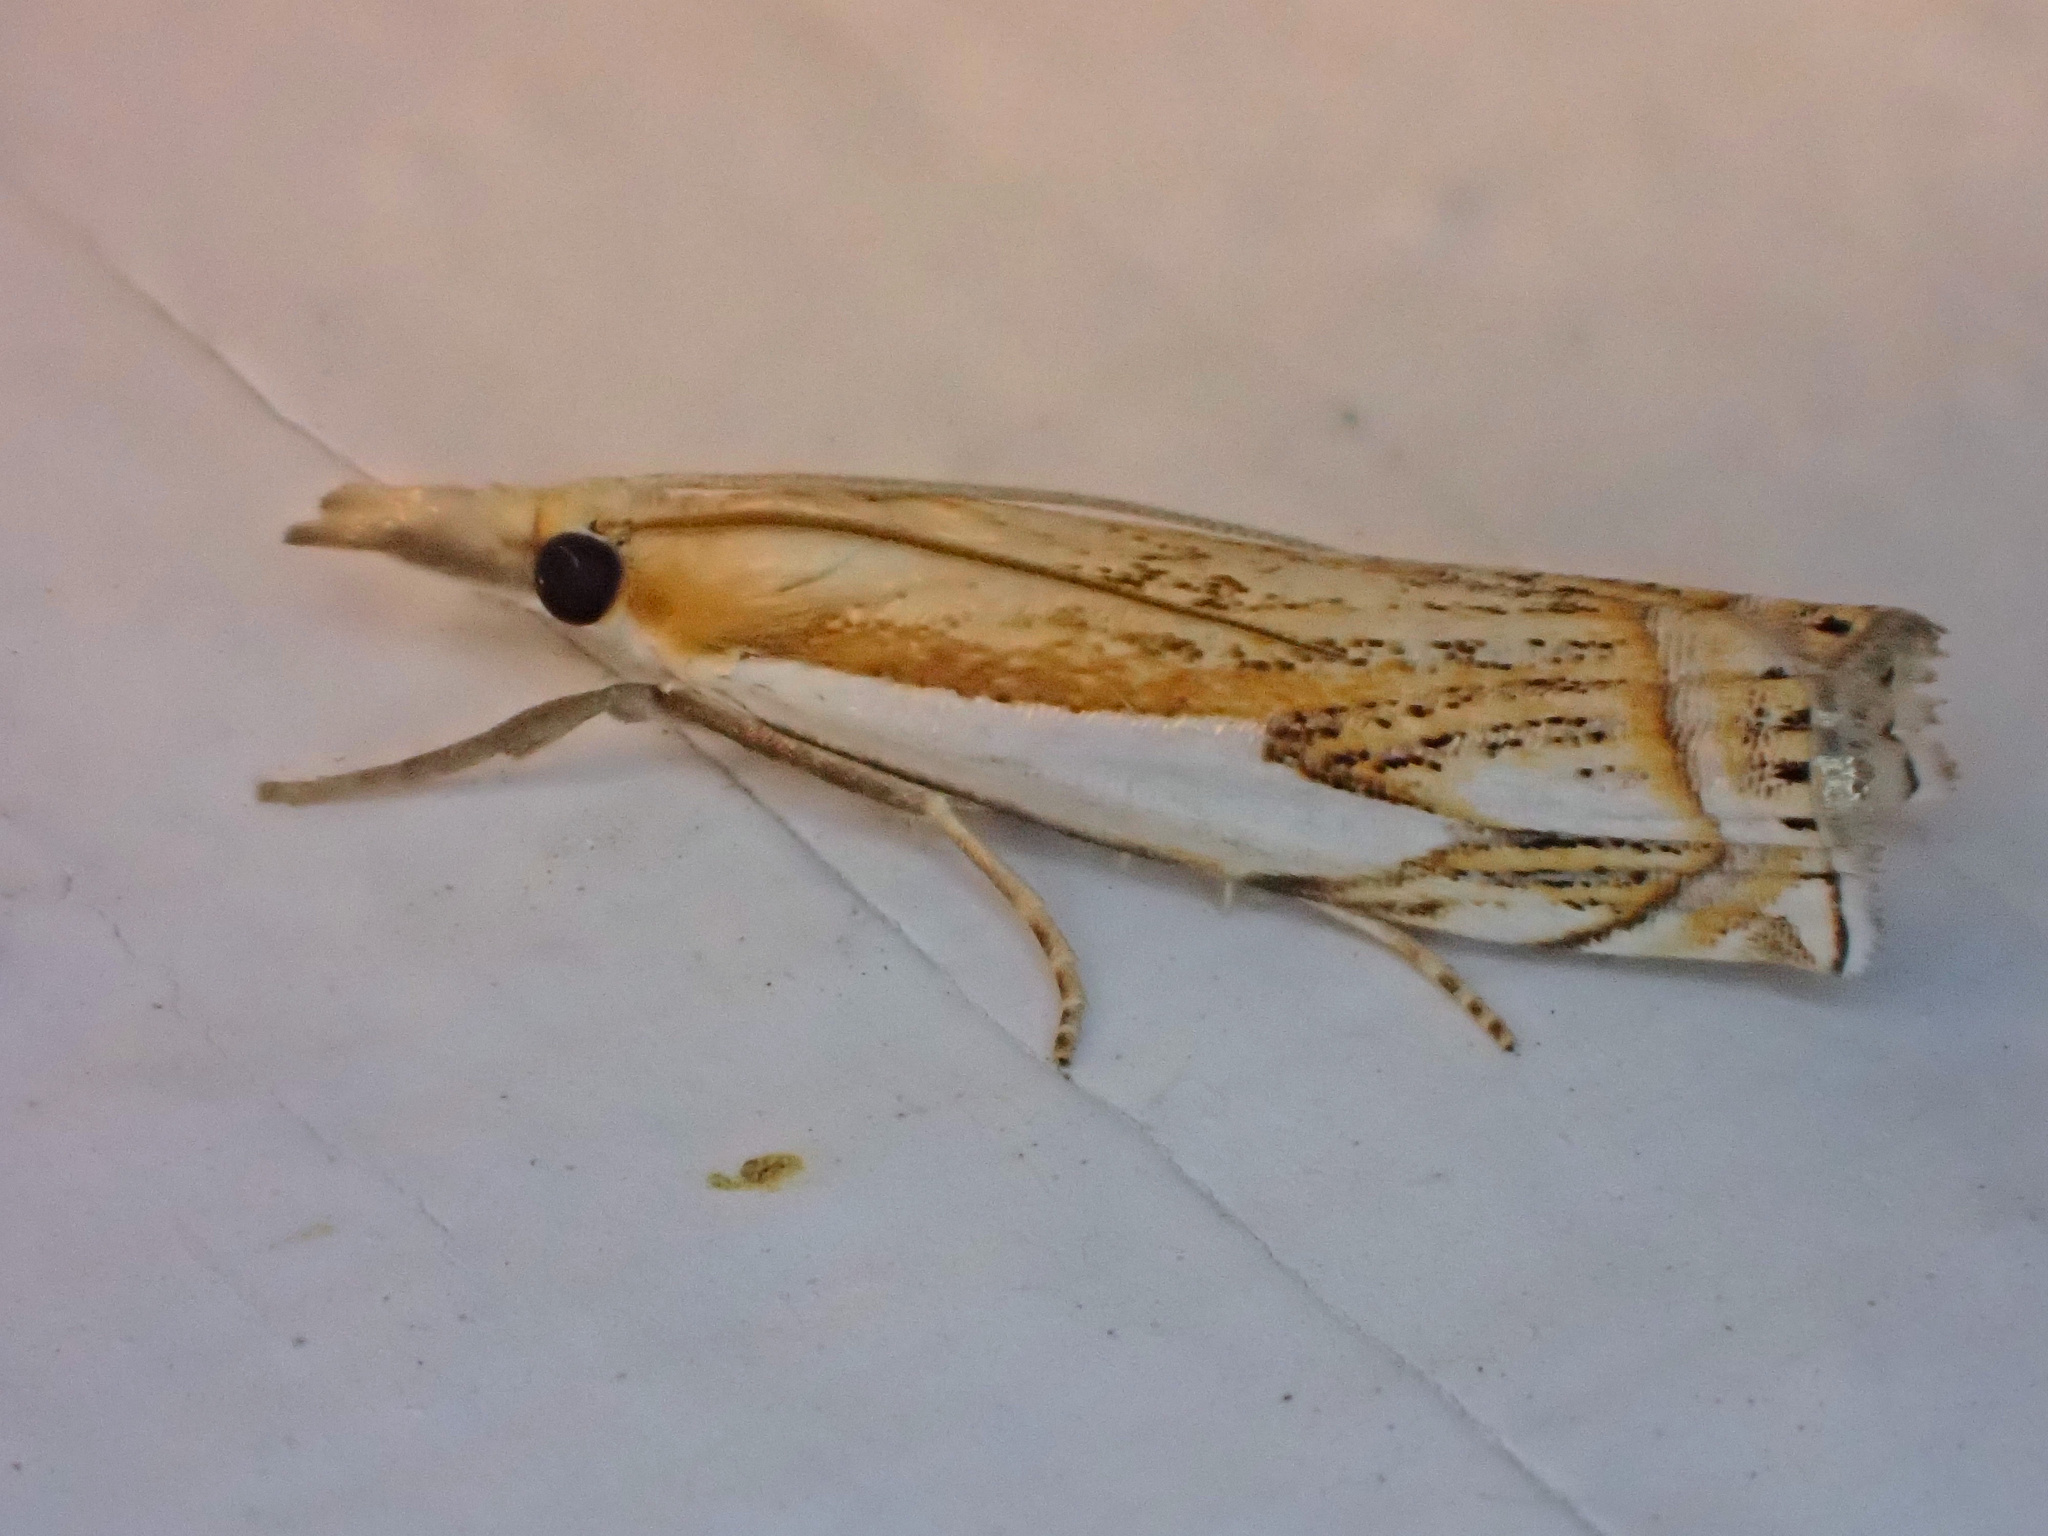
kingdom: Animalia
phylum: Arthropoda
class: Insecta
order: Lepidoptera
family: Crambidae
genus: Crambus
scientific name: Crambus agitatellus
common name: Double-banded grass-veneer
